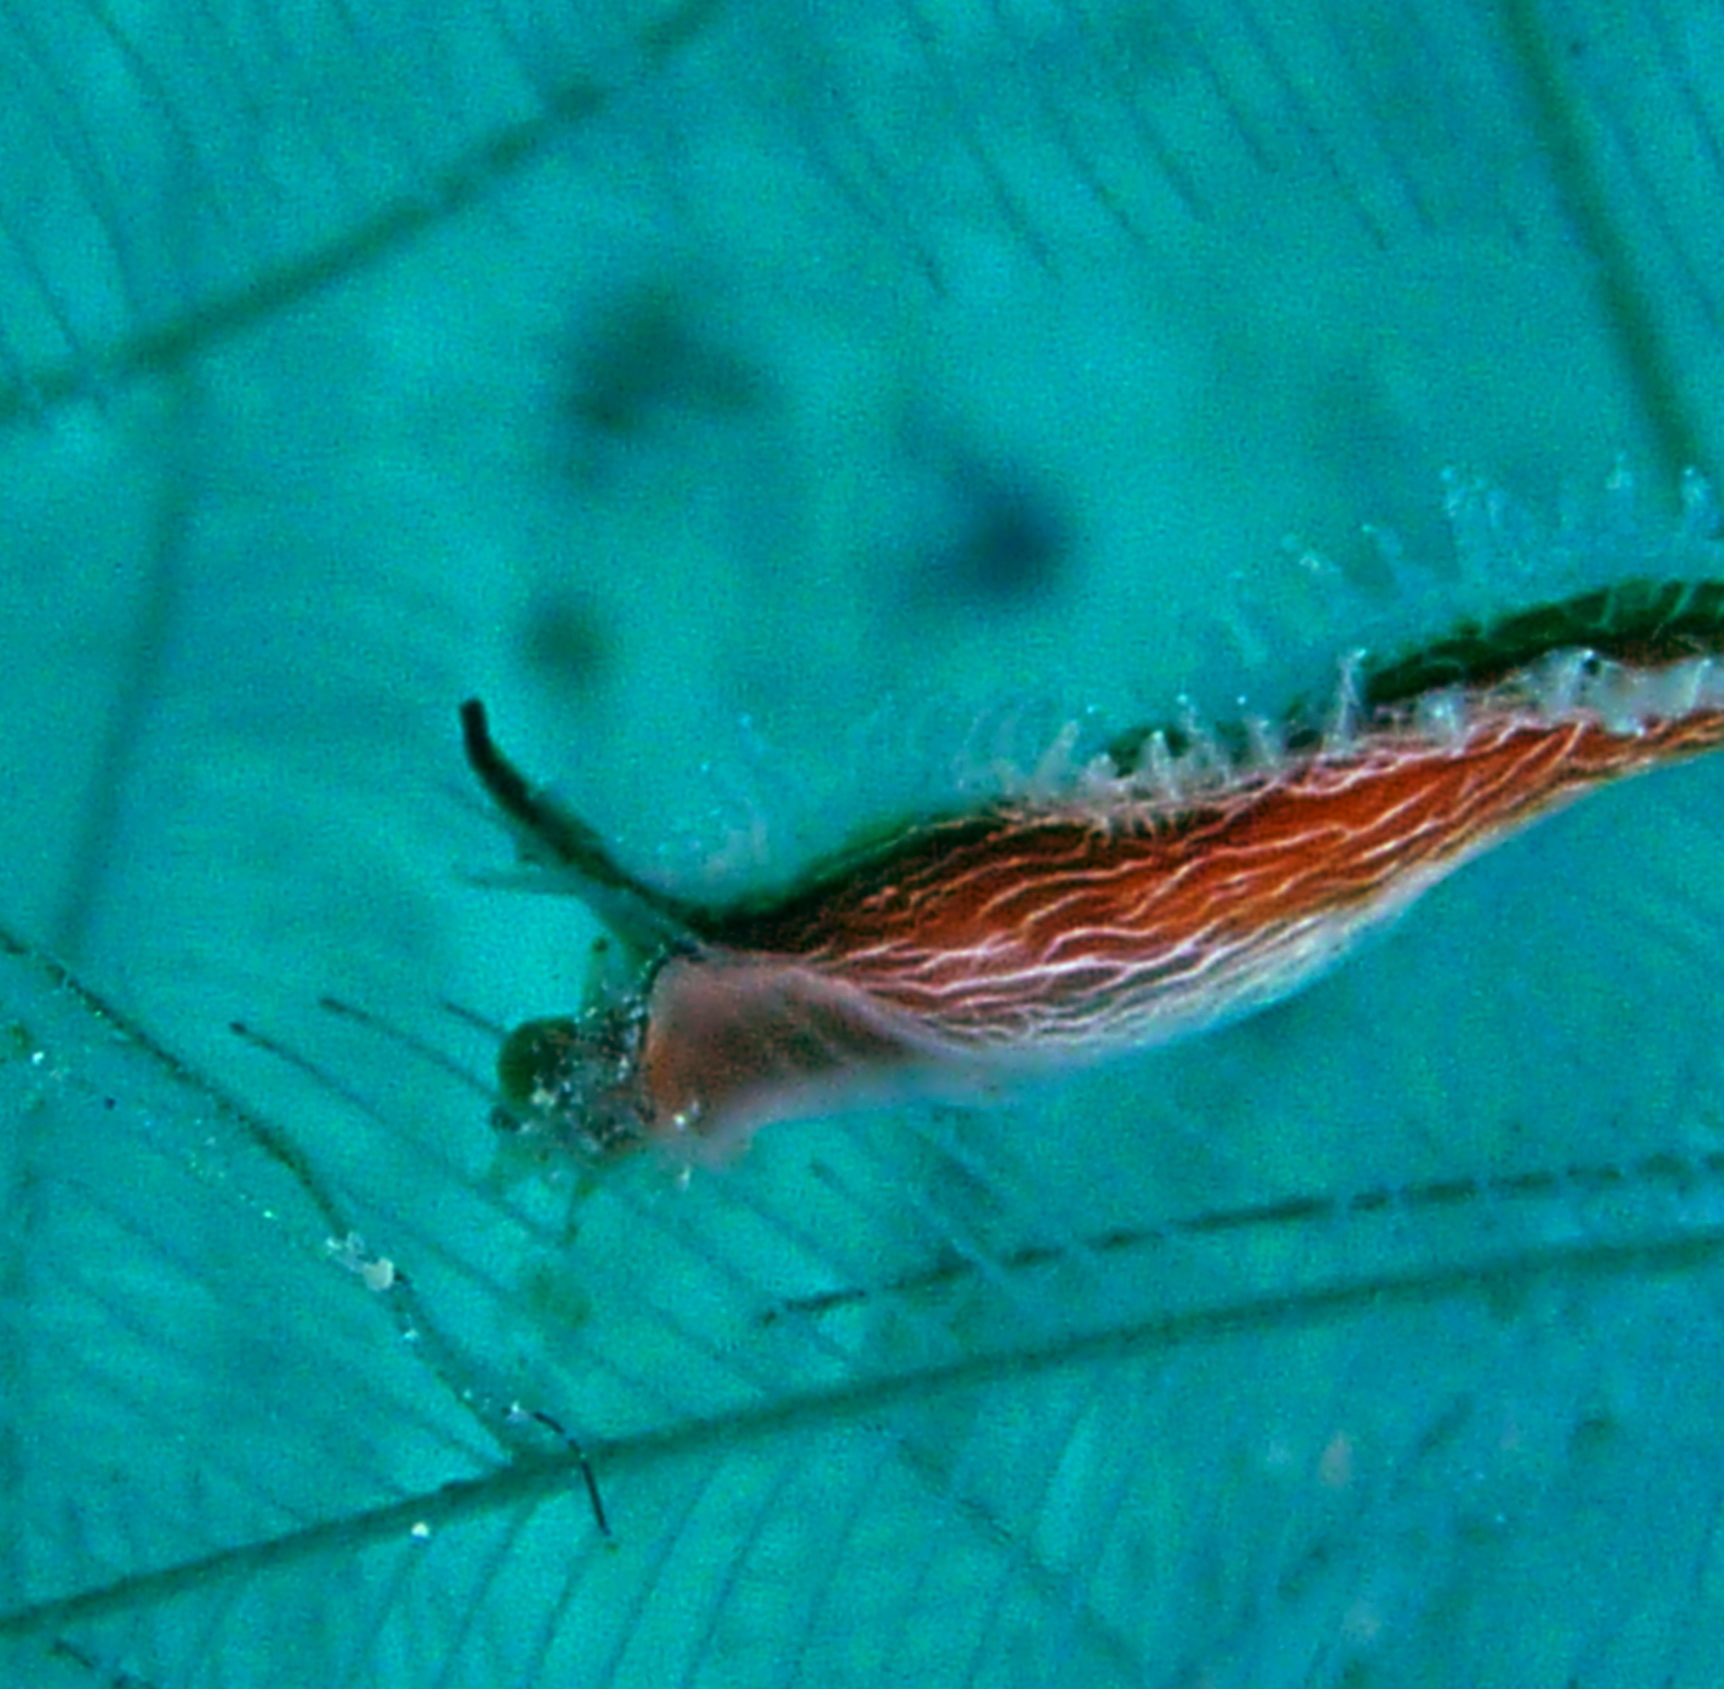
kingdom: Animalia
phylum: Mollusca
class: Gastropoda
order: Nudibranchia
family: Lomanotidae
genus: Lomanotus
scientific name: Lomanotus vermiformis
